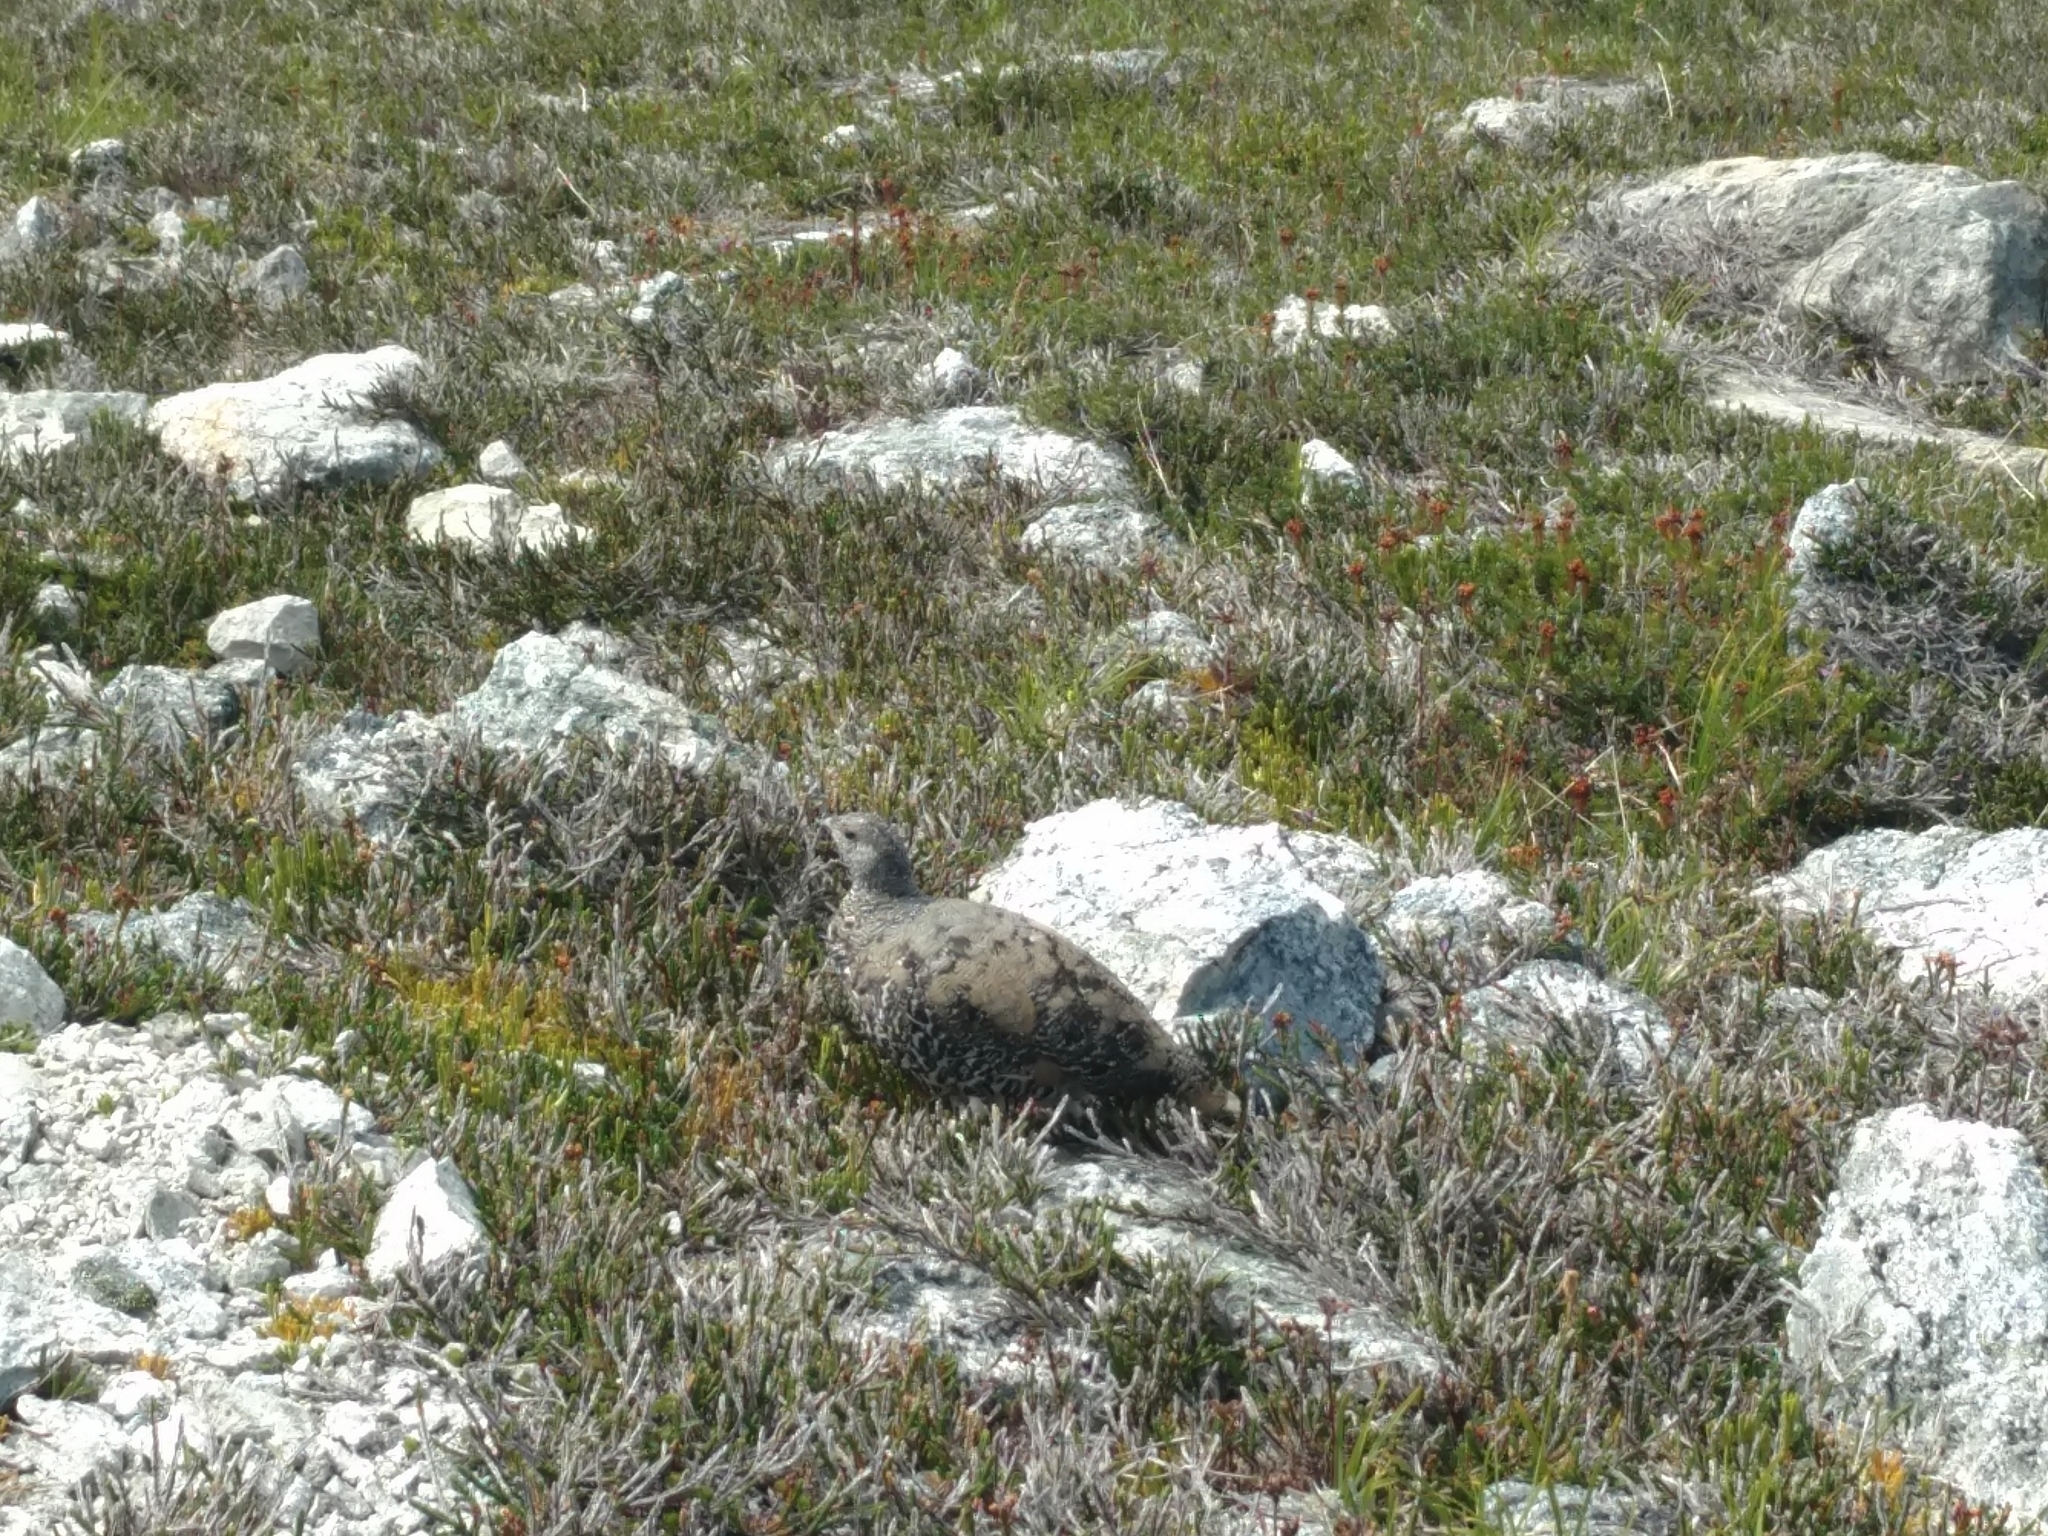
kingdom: Animalia
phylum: Chordata
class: Aves
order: Galliformes
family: Phasianidae
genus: Lagopus
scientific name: Lagopus leucura
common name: White-tailed ptarmigan
